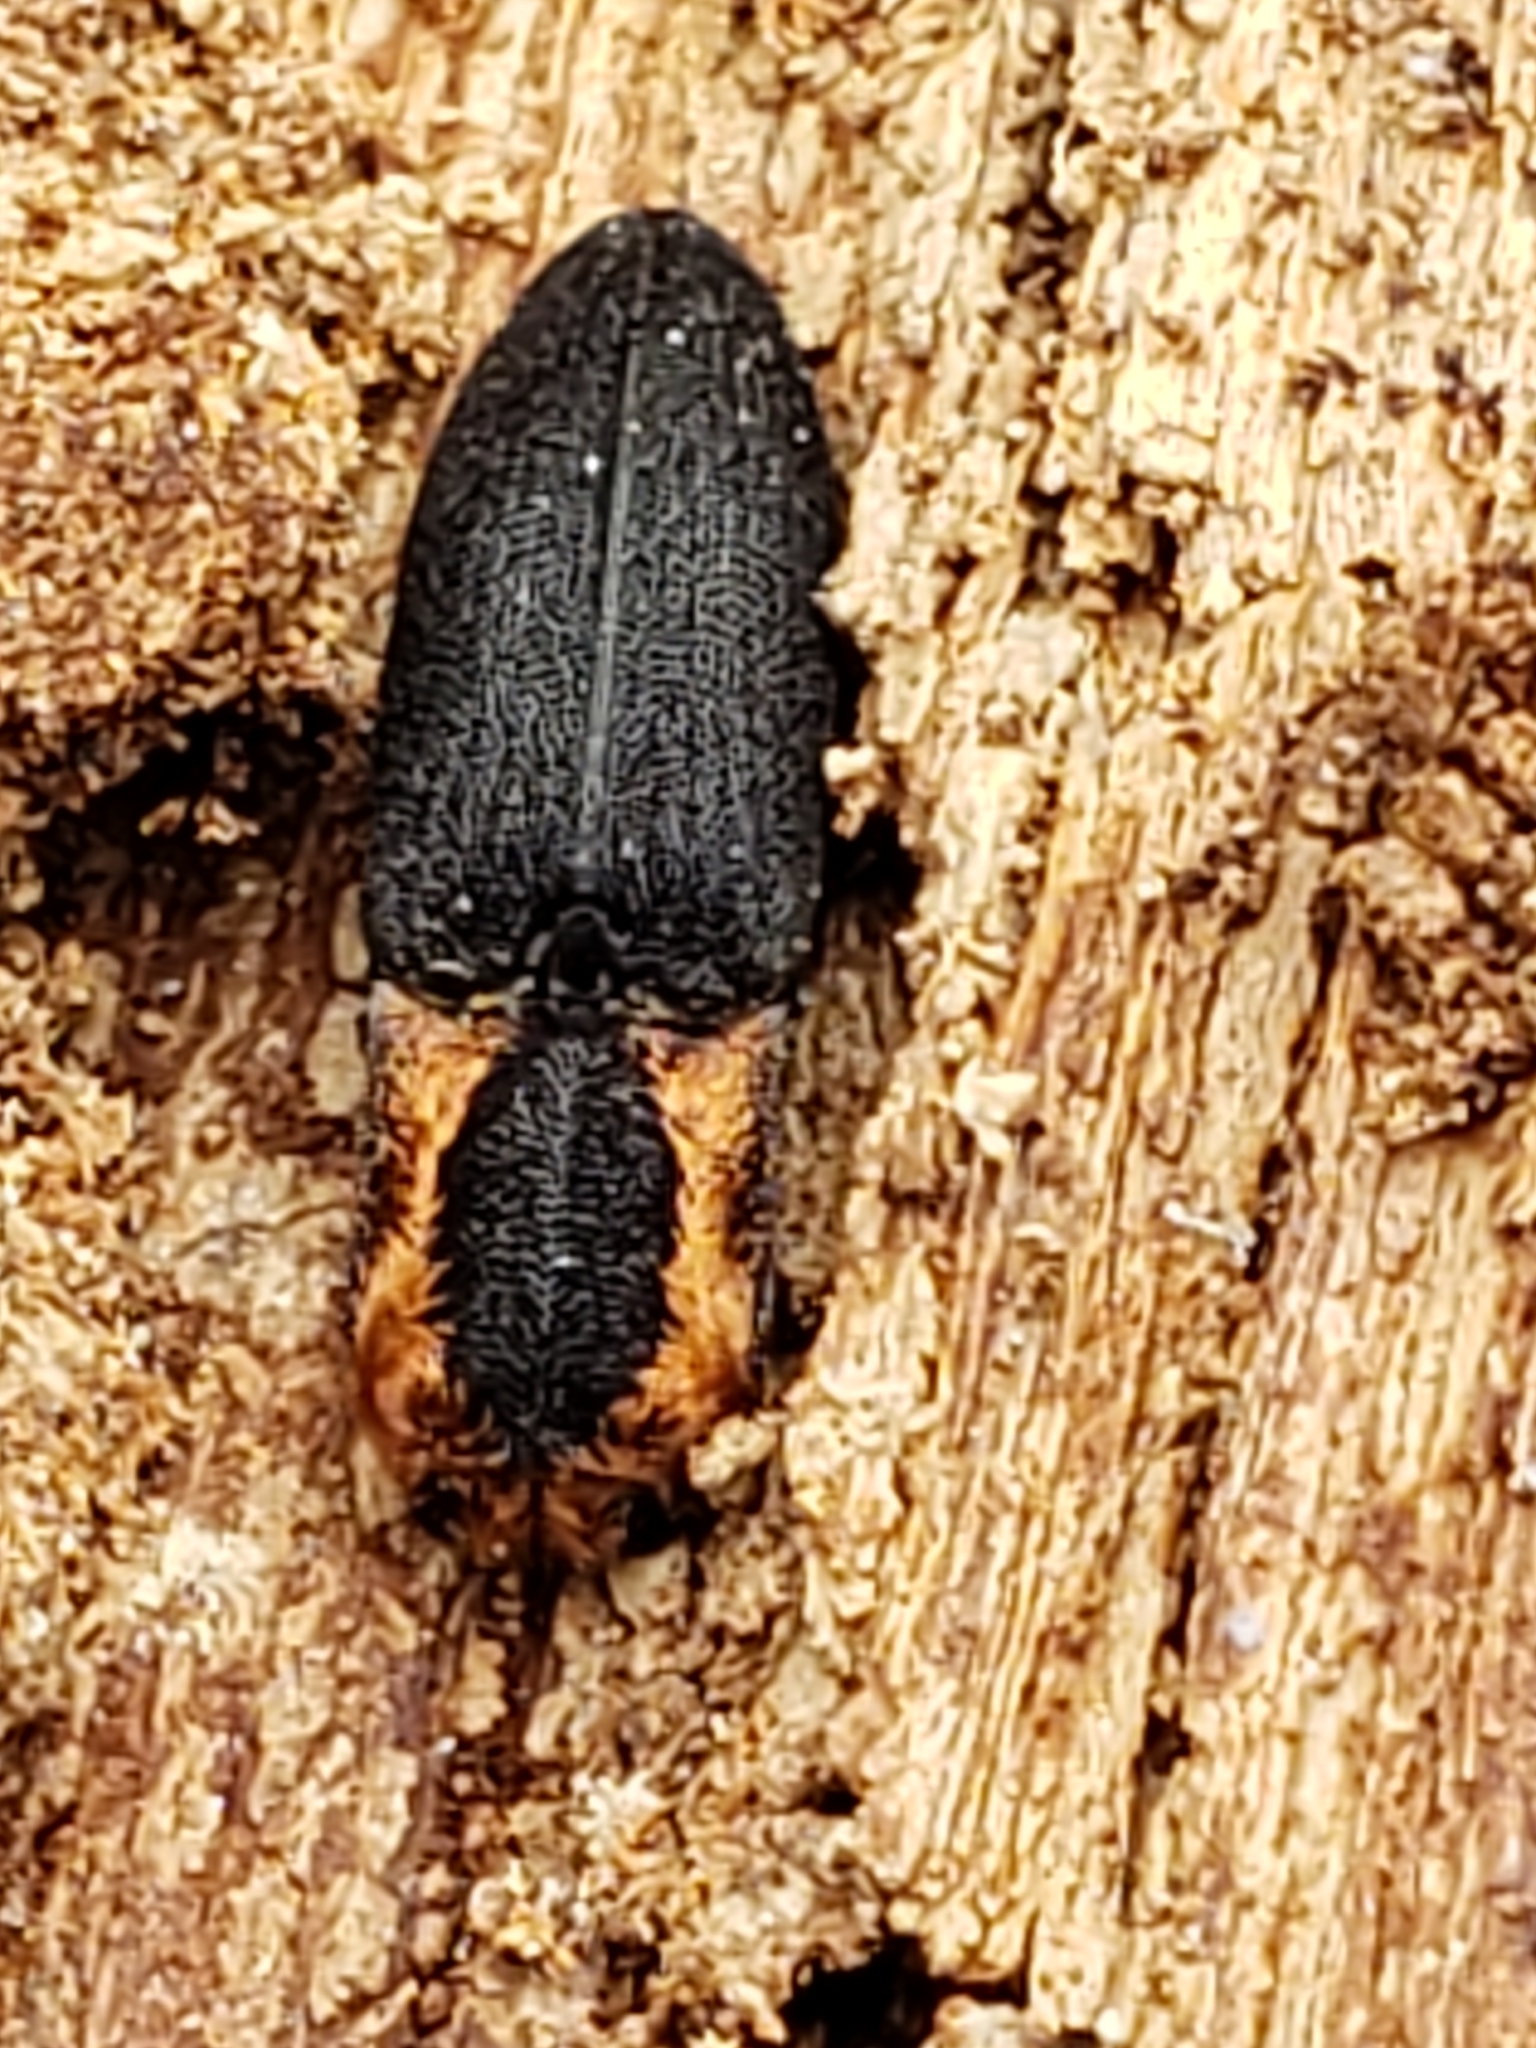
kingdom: Animalia
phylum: Arthropoda
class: Insecta
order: Coleoptera
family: Elateridae
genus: Lacon
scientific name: Lacon discoideus
